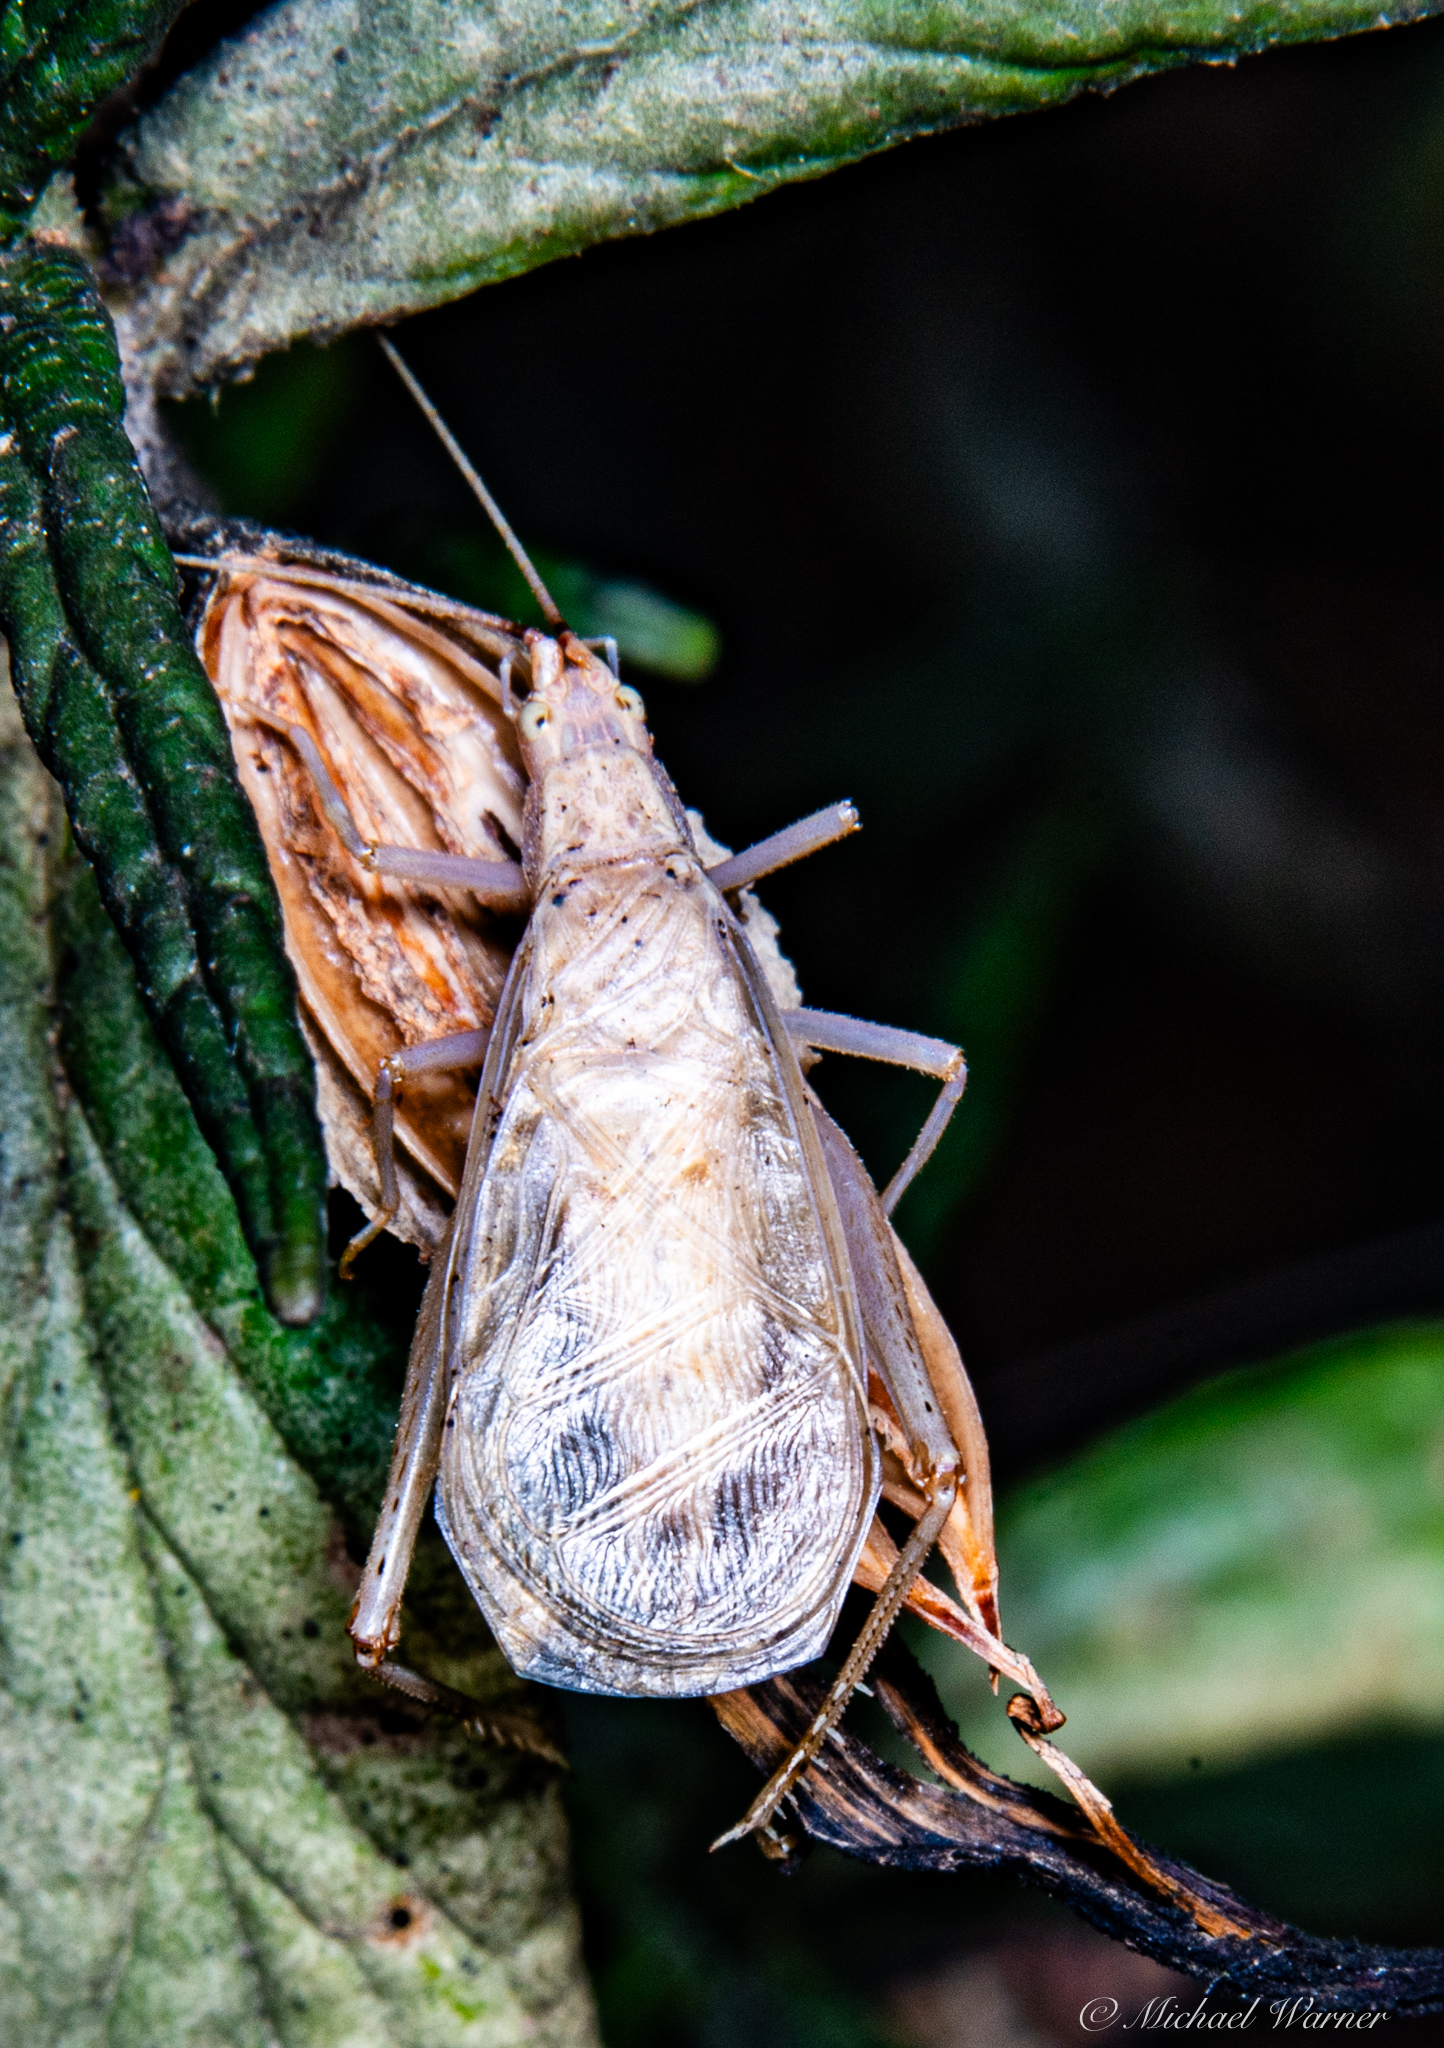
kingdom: Animalia
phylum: Arthropoda
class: Insecta
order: Orthoptera
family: Gryllidae
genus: Oecanthus
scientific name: Oecanthus californicus
